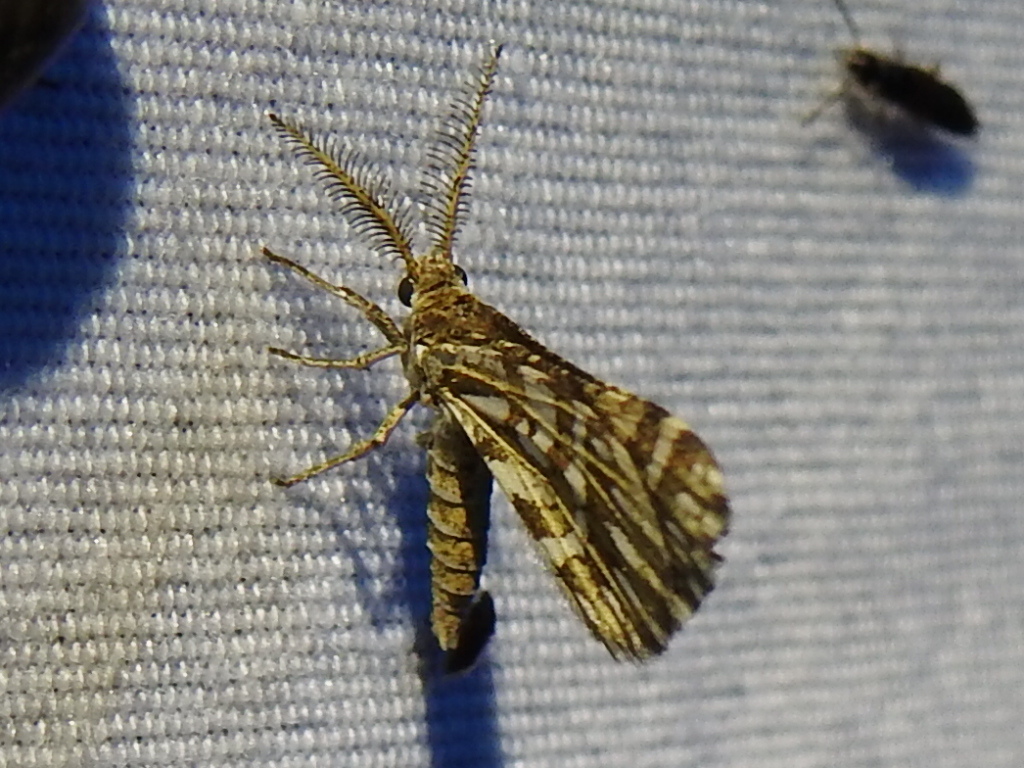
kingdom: Animalia
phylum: Arthropoda
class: Insecta
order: Lepidoptera
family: Geometridae
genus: Narraga
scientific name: Narraga fimetaria
